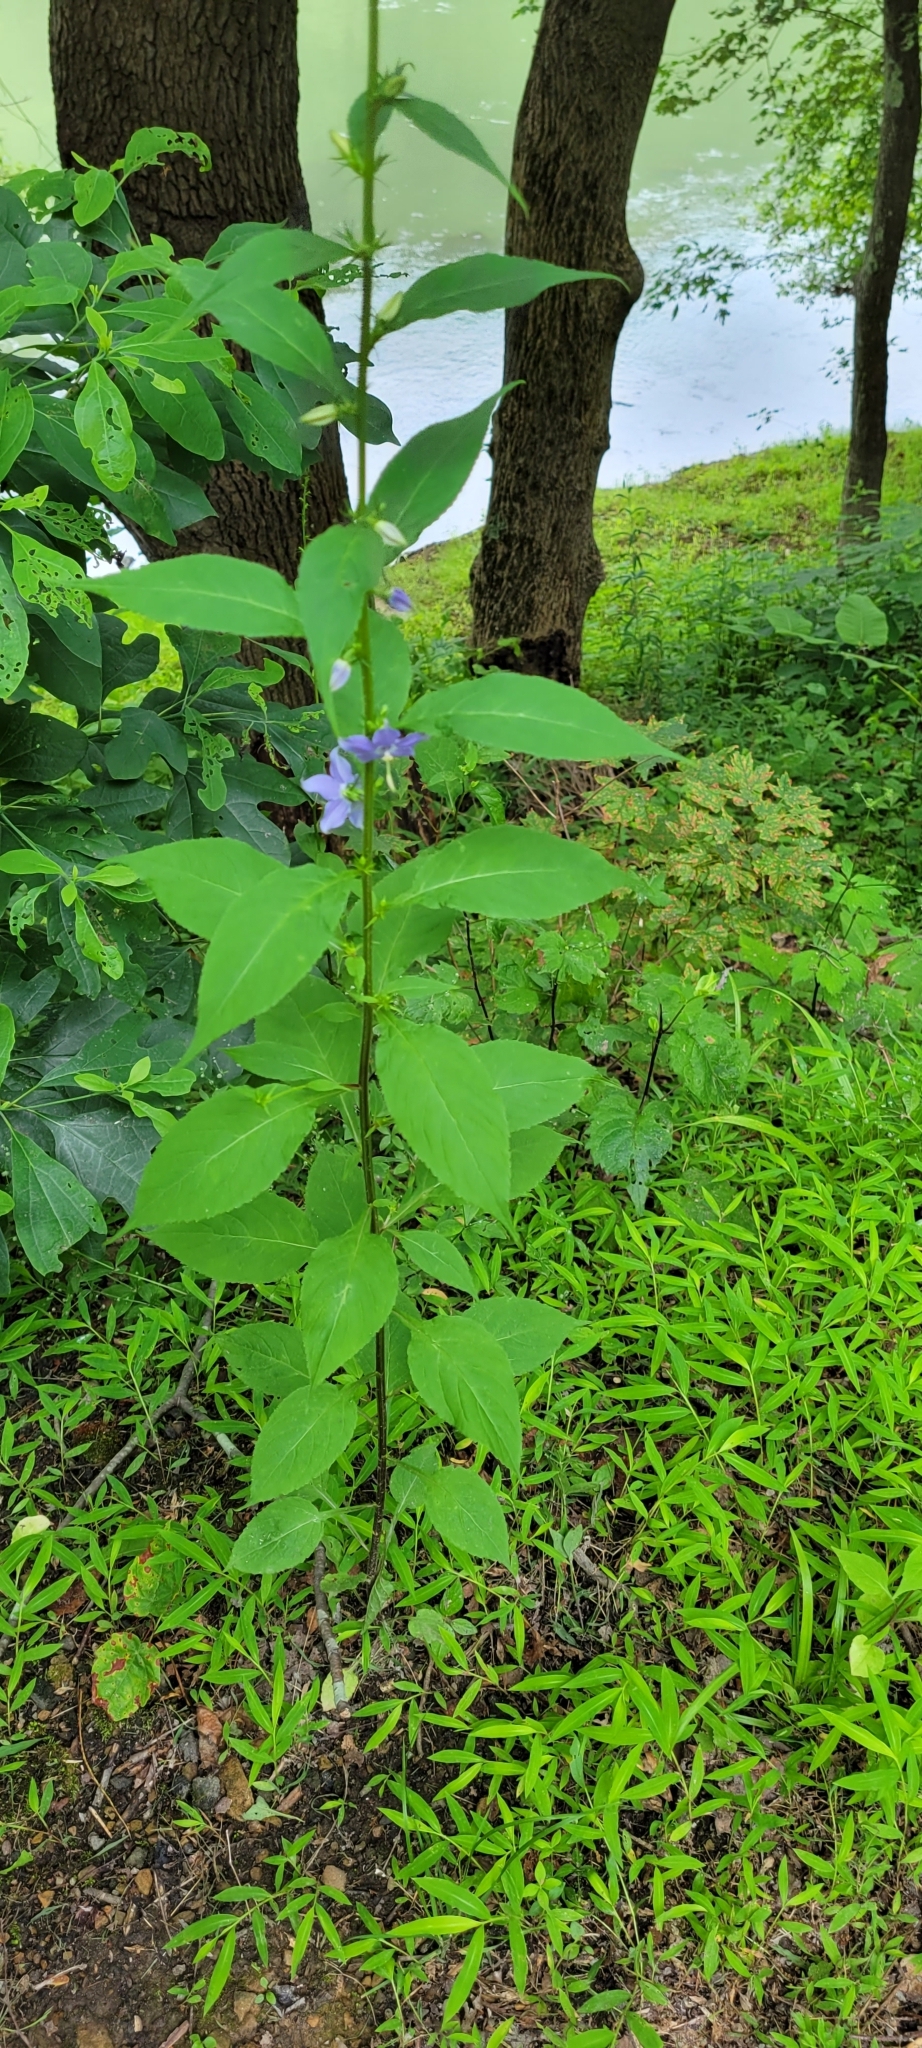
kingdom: Plantae
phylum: Tracheophyta
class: Magnoliopsida
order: Asterales
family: Campanulaceae
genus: Campanulastrum
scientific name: Campanulastrum americanum
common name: American bellflower
